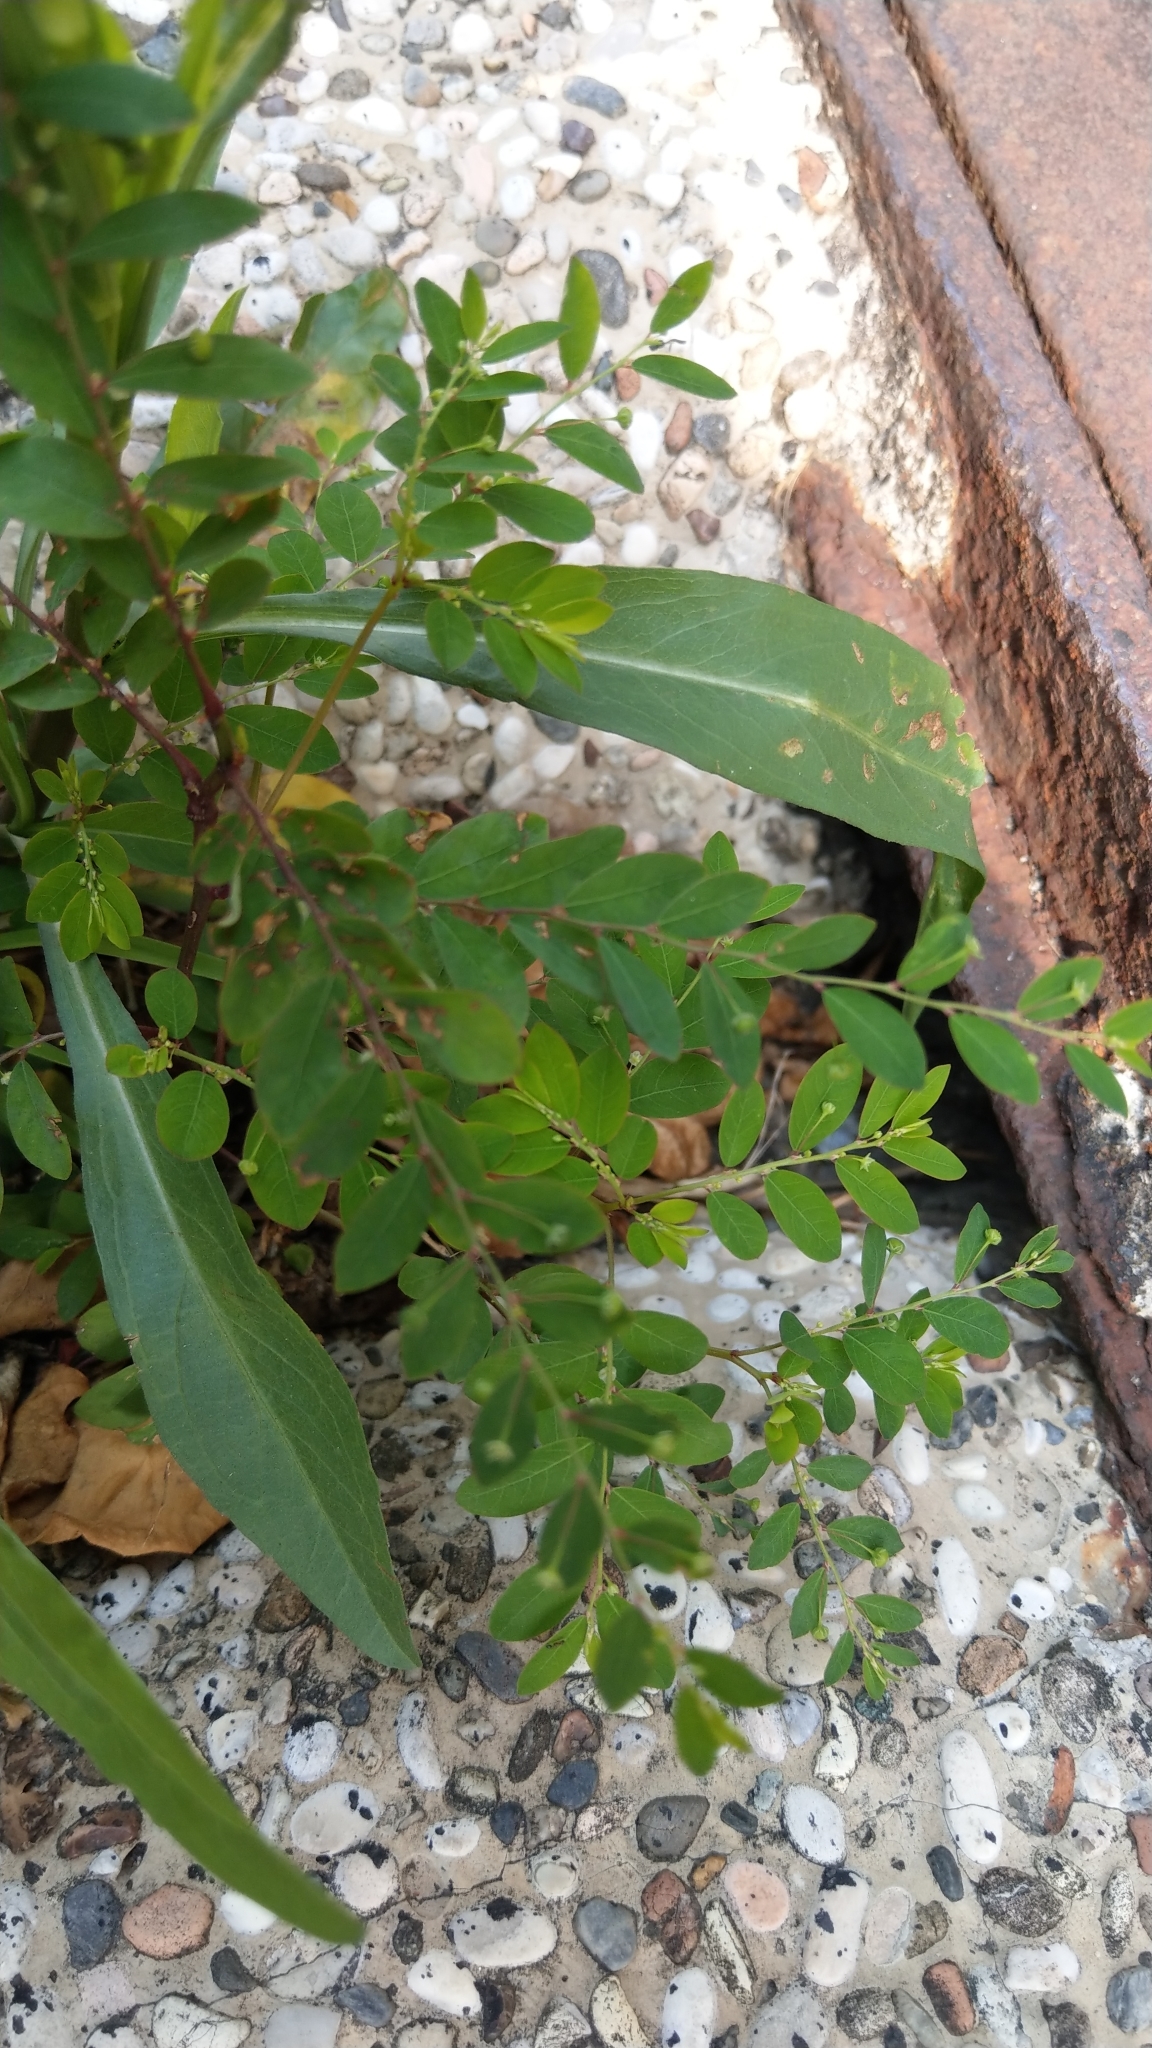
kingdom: Plantae
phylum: Tracheophyta
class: Magnoliopsida
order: Malpighiales
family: Phyllanthaceae
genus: Phyllanthus
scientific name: Phyllanthus tenellus
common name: Mascarene island leaf-flower
